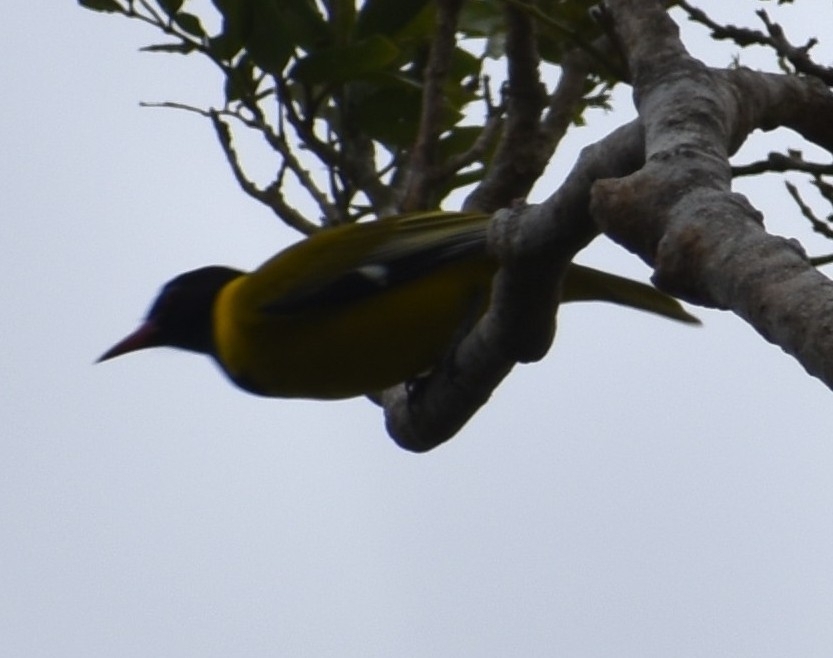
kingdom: Animalia
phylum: Chordata
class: Aves
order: Passeriformes
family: Oriolidae
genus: Oriolus
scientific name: Oriolus larvatus
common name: Black-headed oriole
